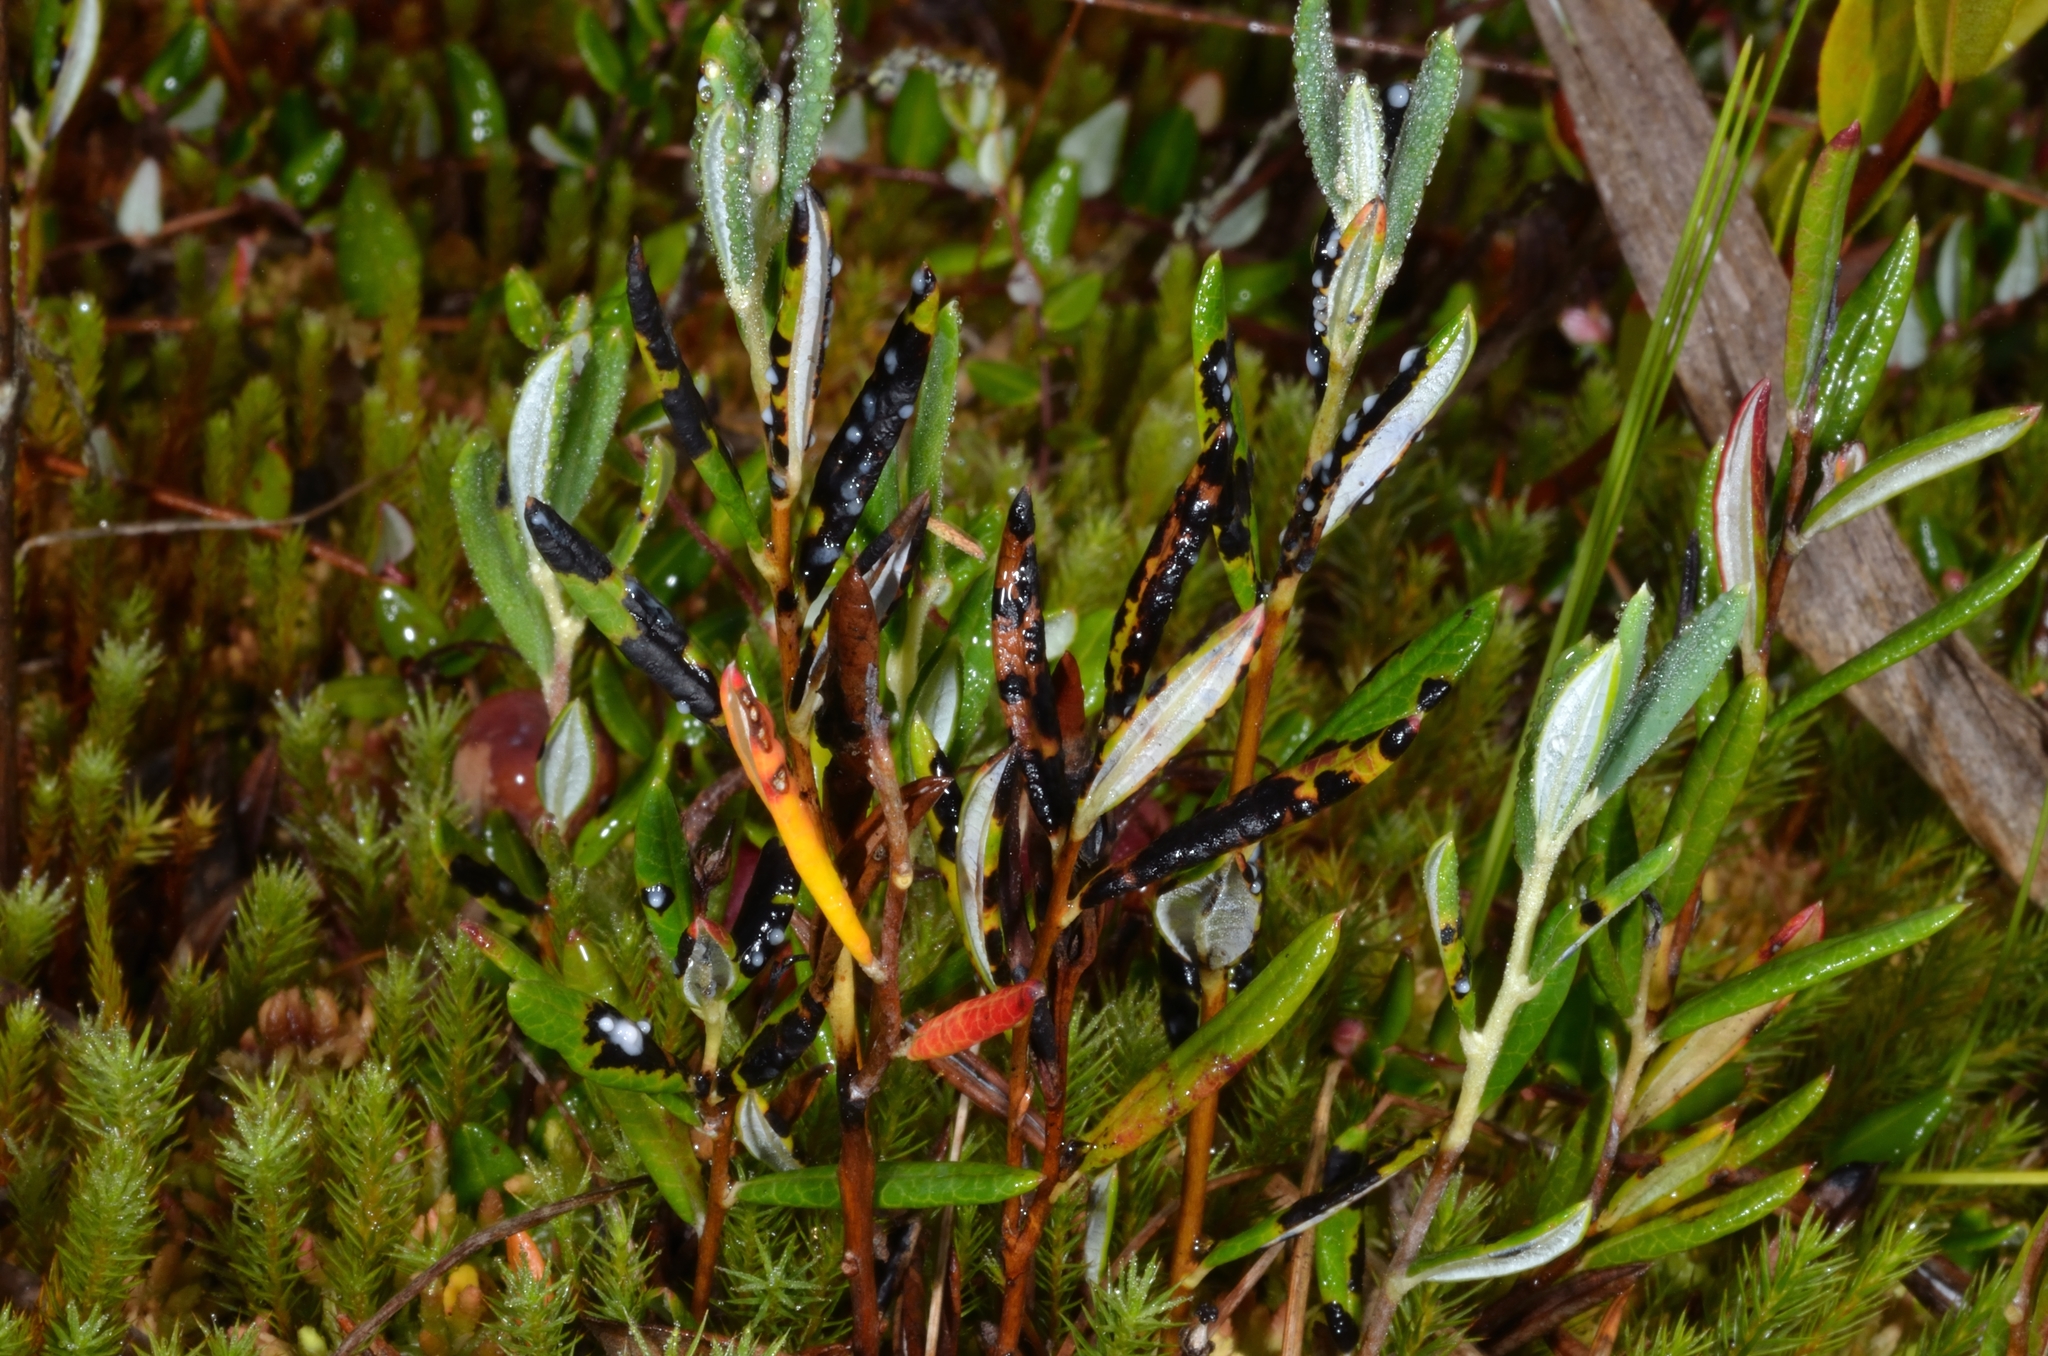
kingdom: Fungi
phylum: Ascomycota
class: Leotiomycetes
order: Rhytismatales
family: Rhytismataceae
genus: Rhytisma
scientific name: Rhytisma andromedae
